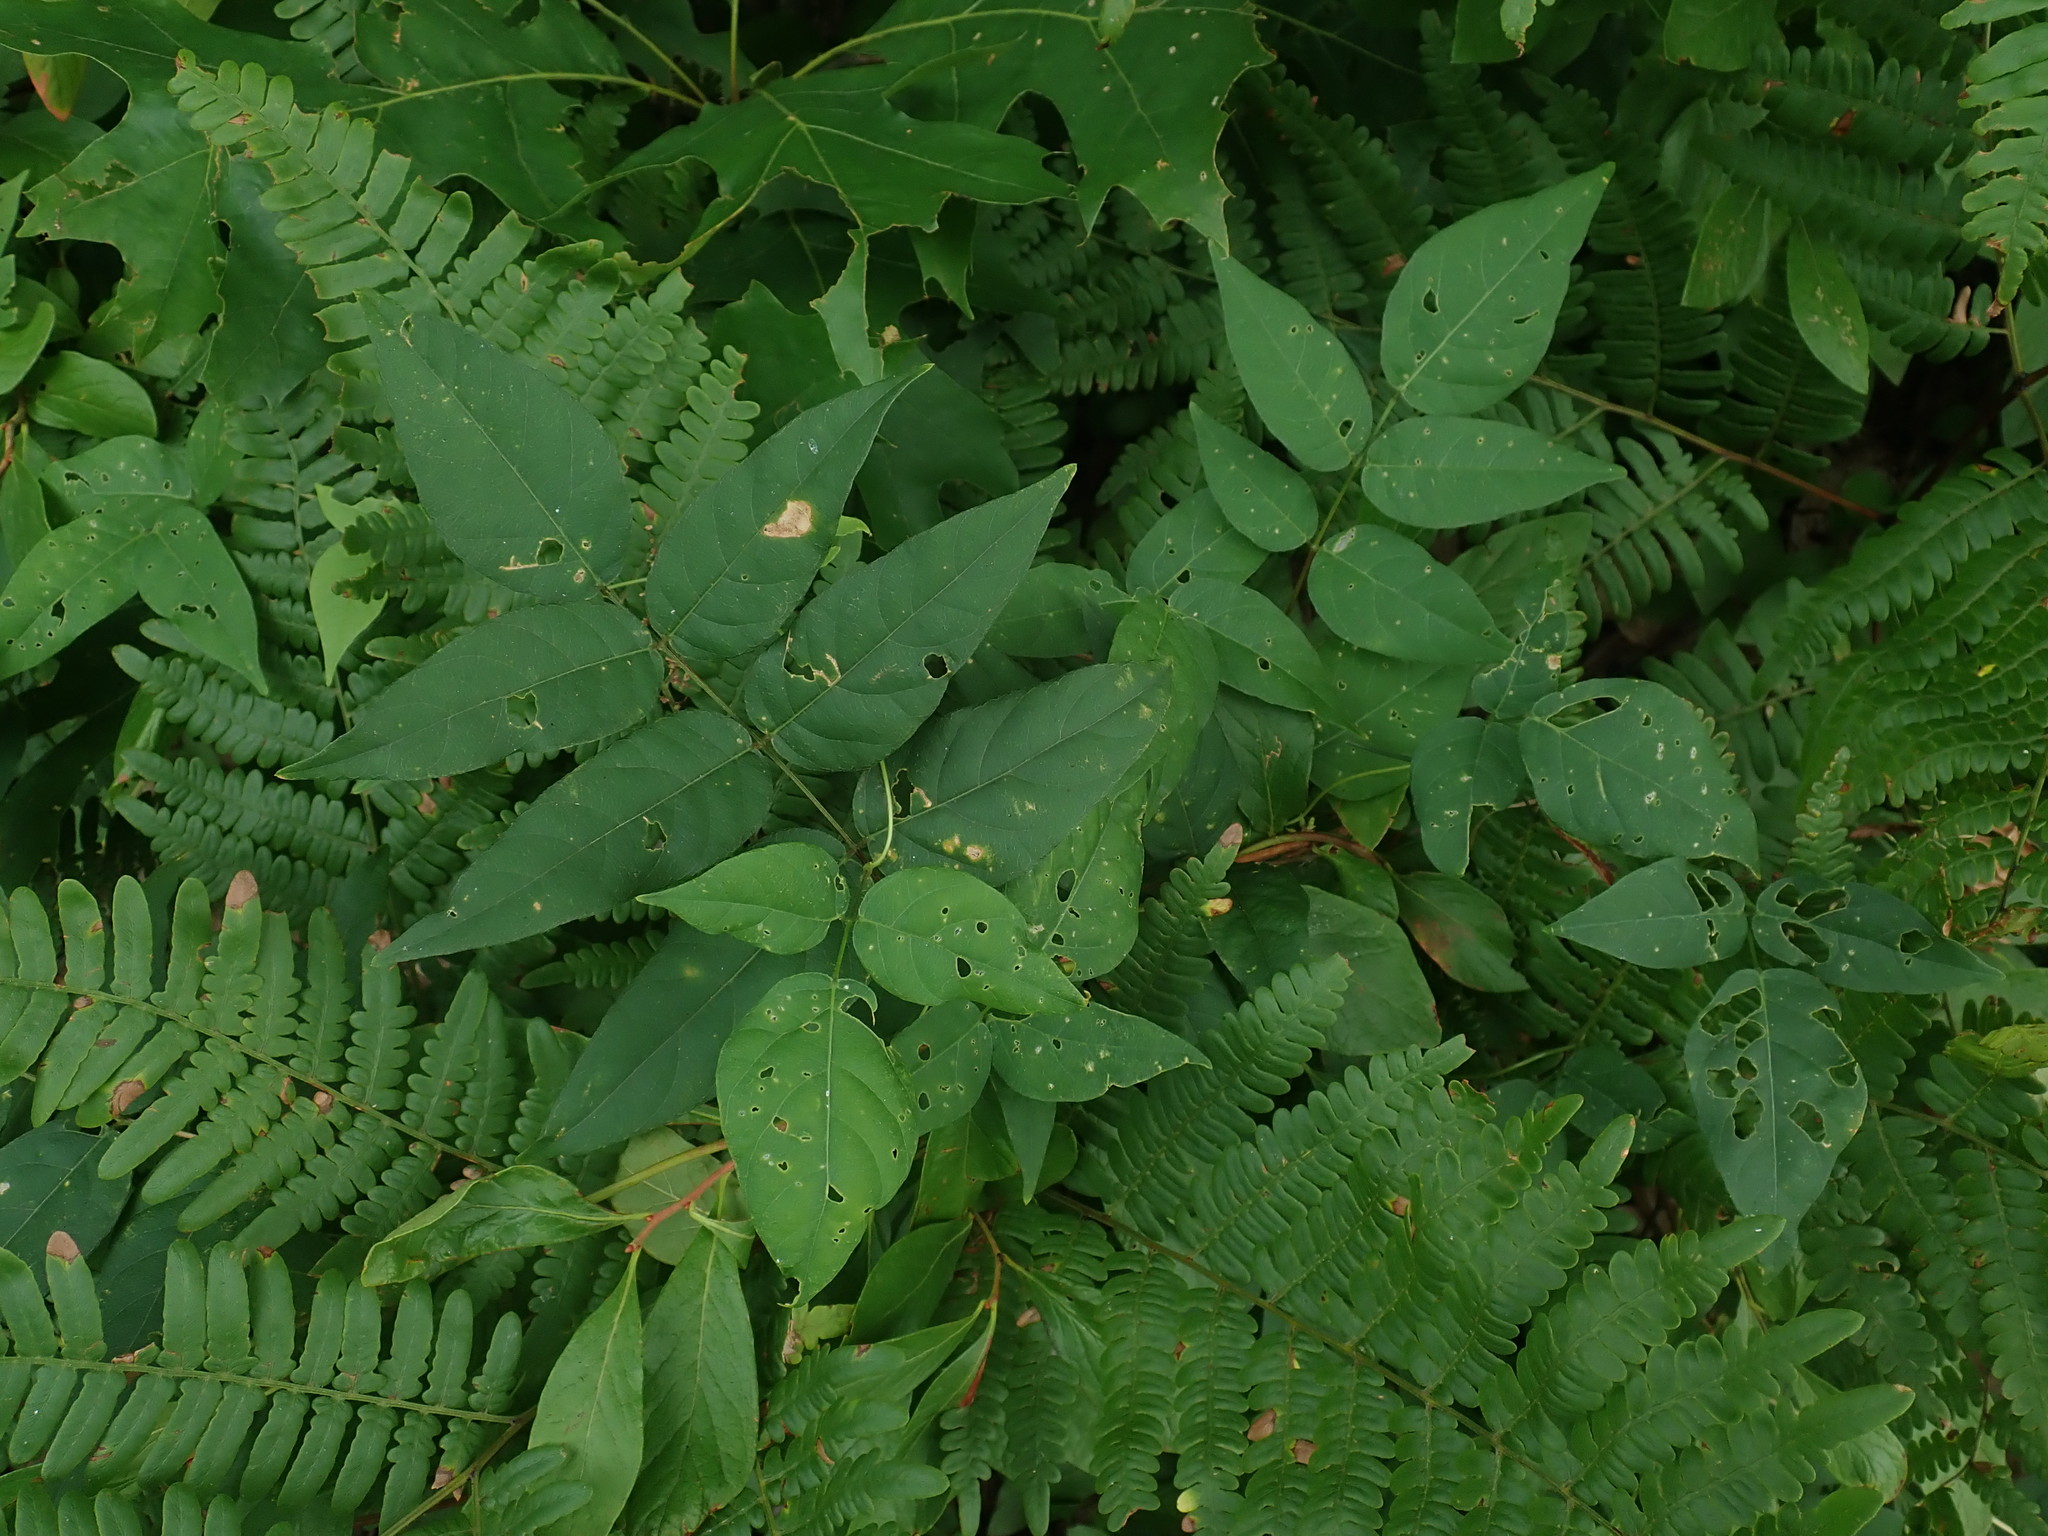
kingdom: Plantae
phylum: Tracheophyta
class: Magnoliopsida
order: Fabales
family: Fabaceae
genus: Apios
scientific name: Apios americana
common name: American potato-bean
